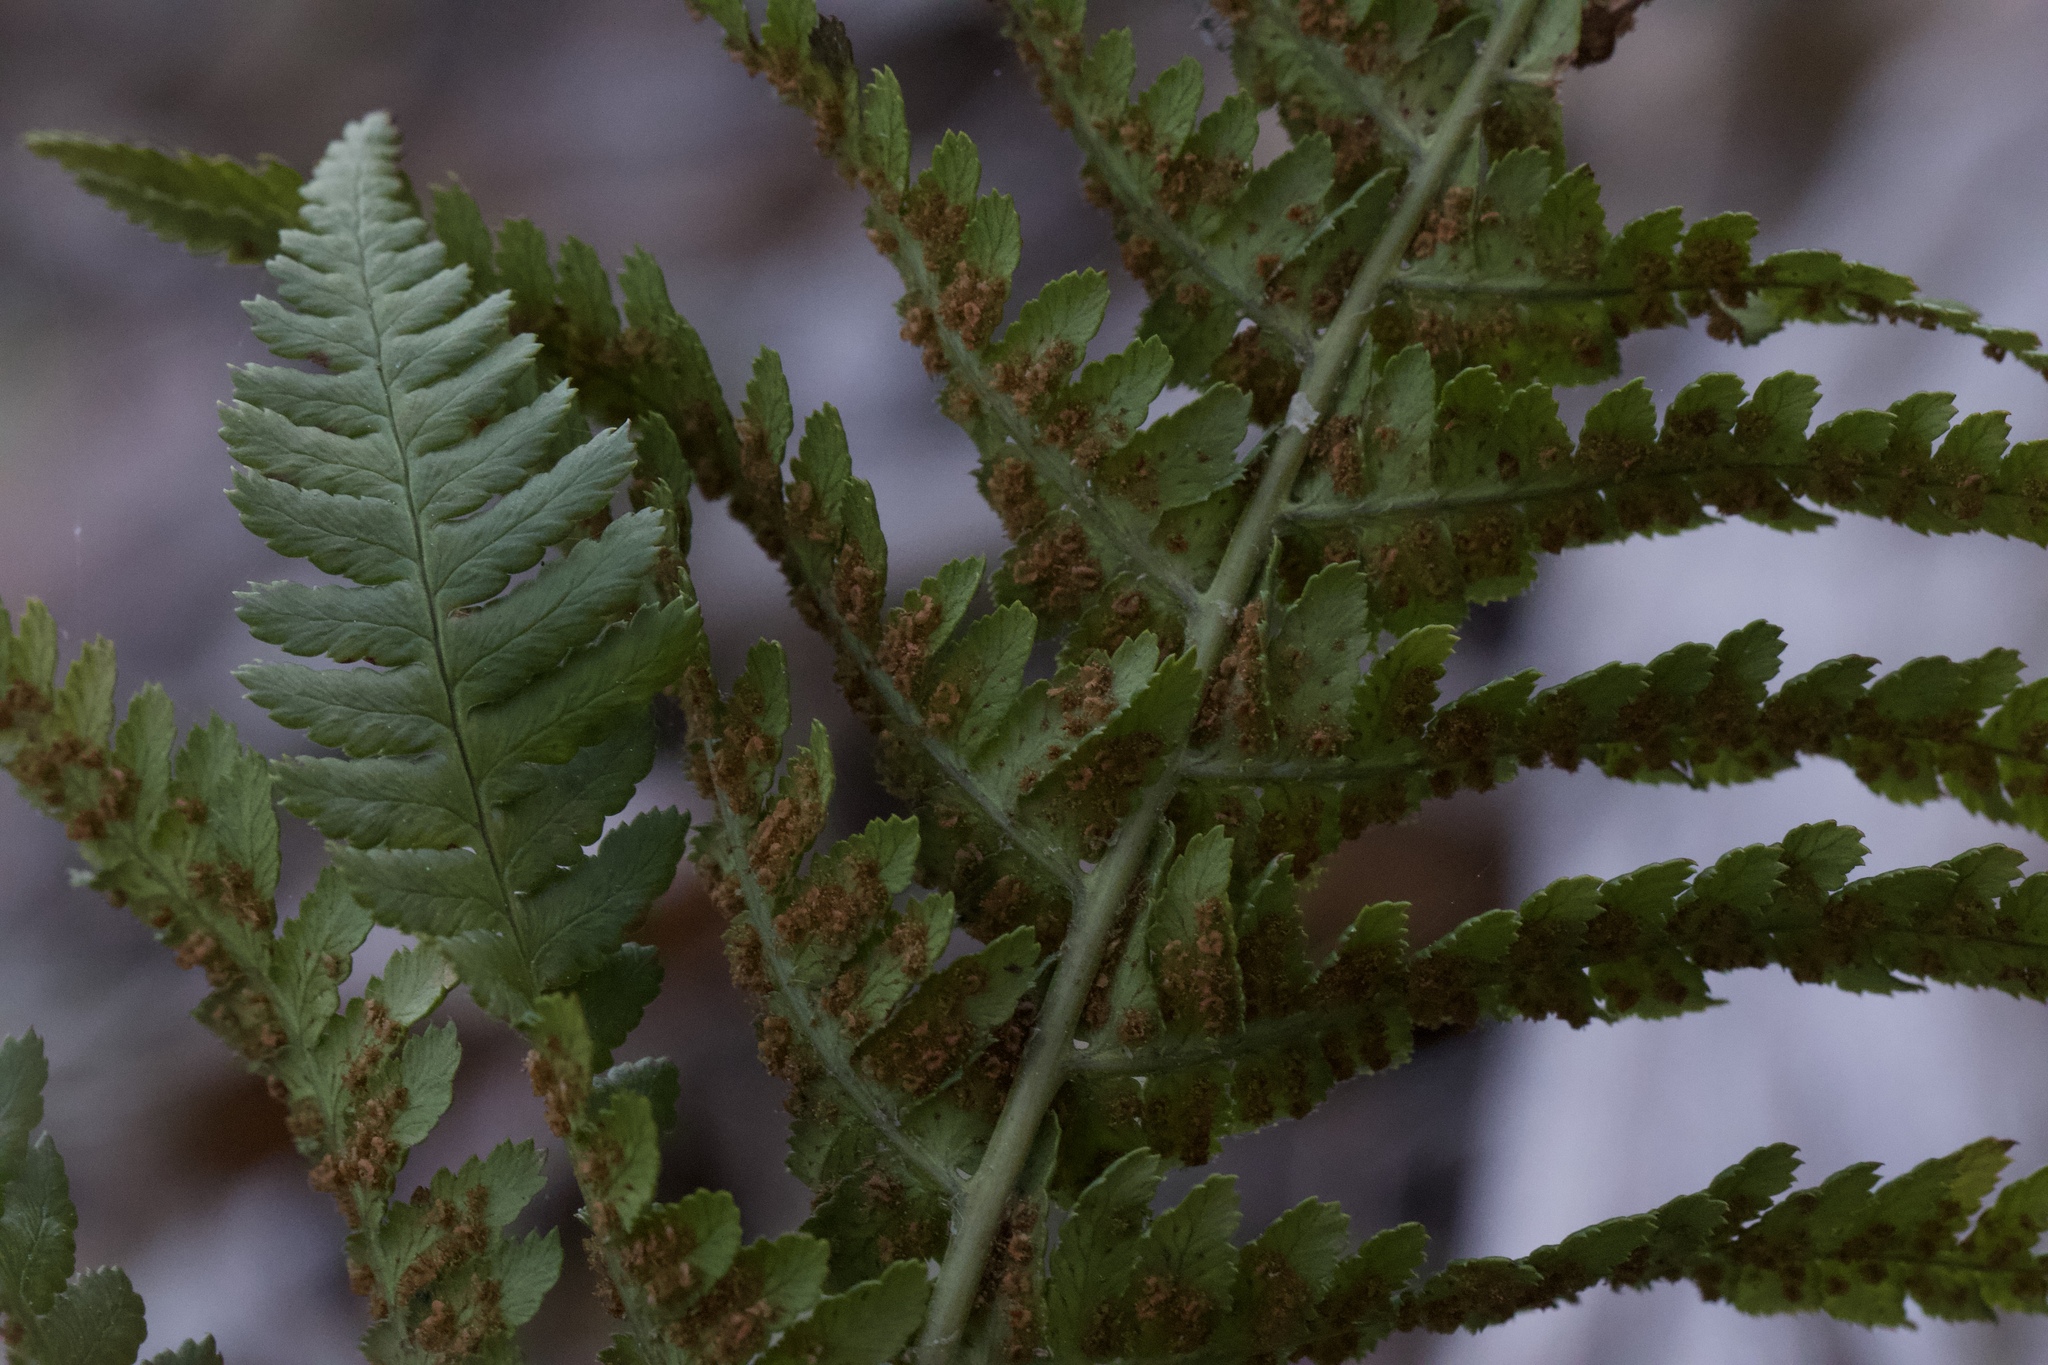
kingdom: Plantae
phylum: Tracheophyta
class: Polypodiopsida
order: Polypodiales
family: Dryopteridaceae
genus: Dryopteris
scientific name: Dryopteris arguta
